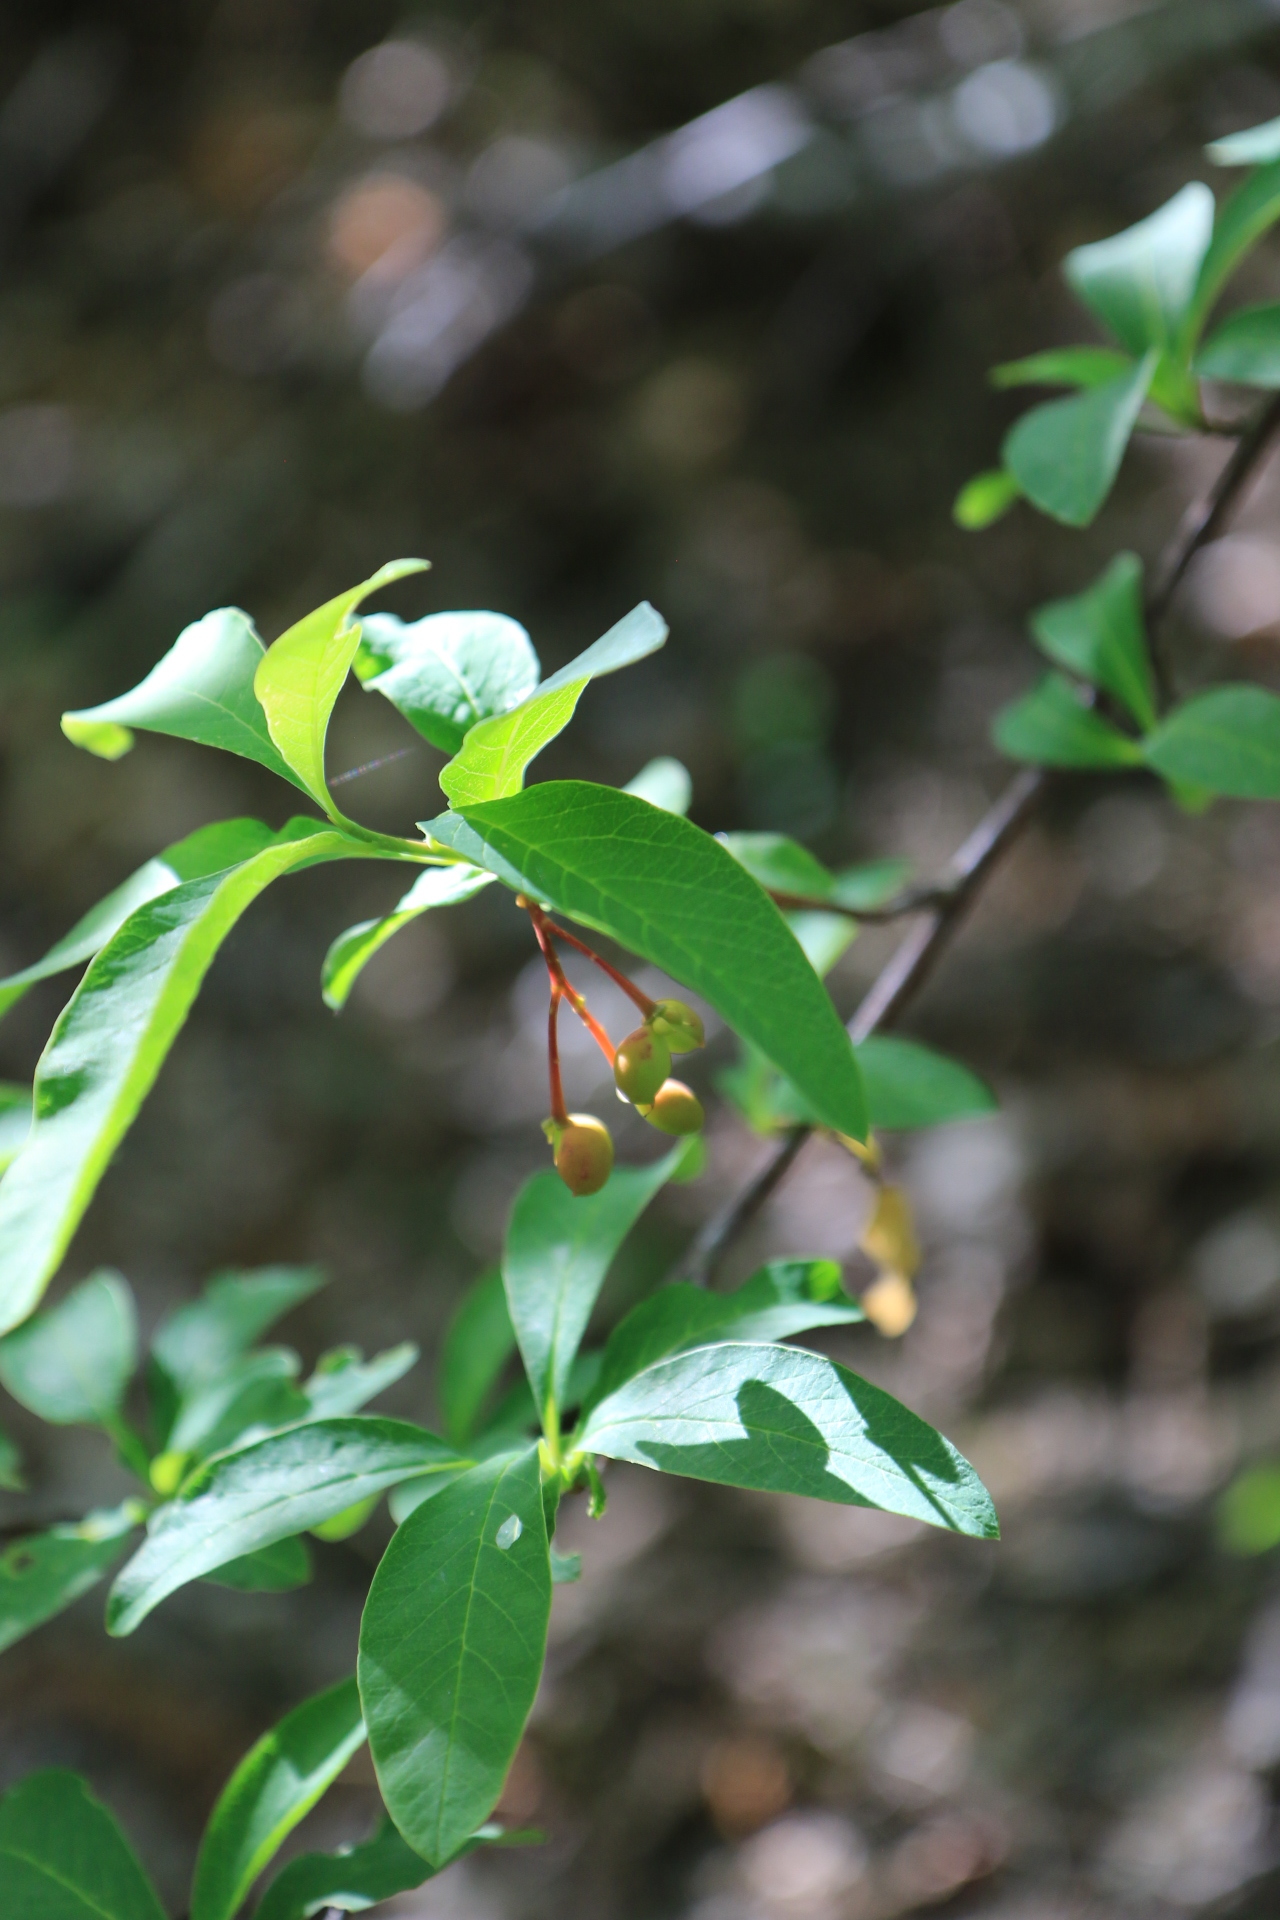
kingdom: Plantae
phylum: Tracheophyta
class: Magnoliopsida
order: Rosales
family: Rosaceae
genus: Oemleria
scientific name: Oemleria cerasiformis
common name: Osoberry
